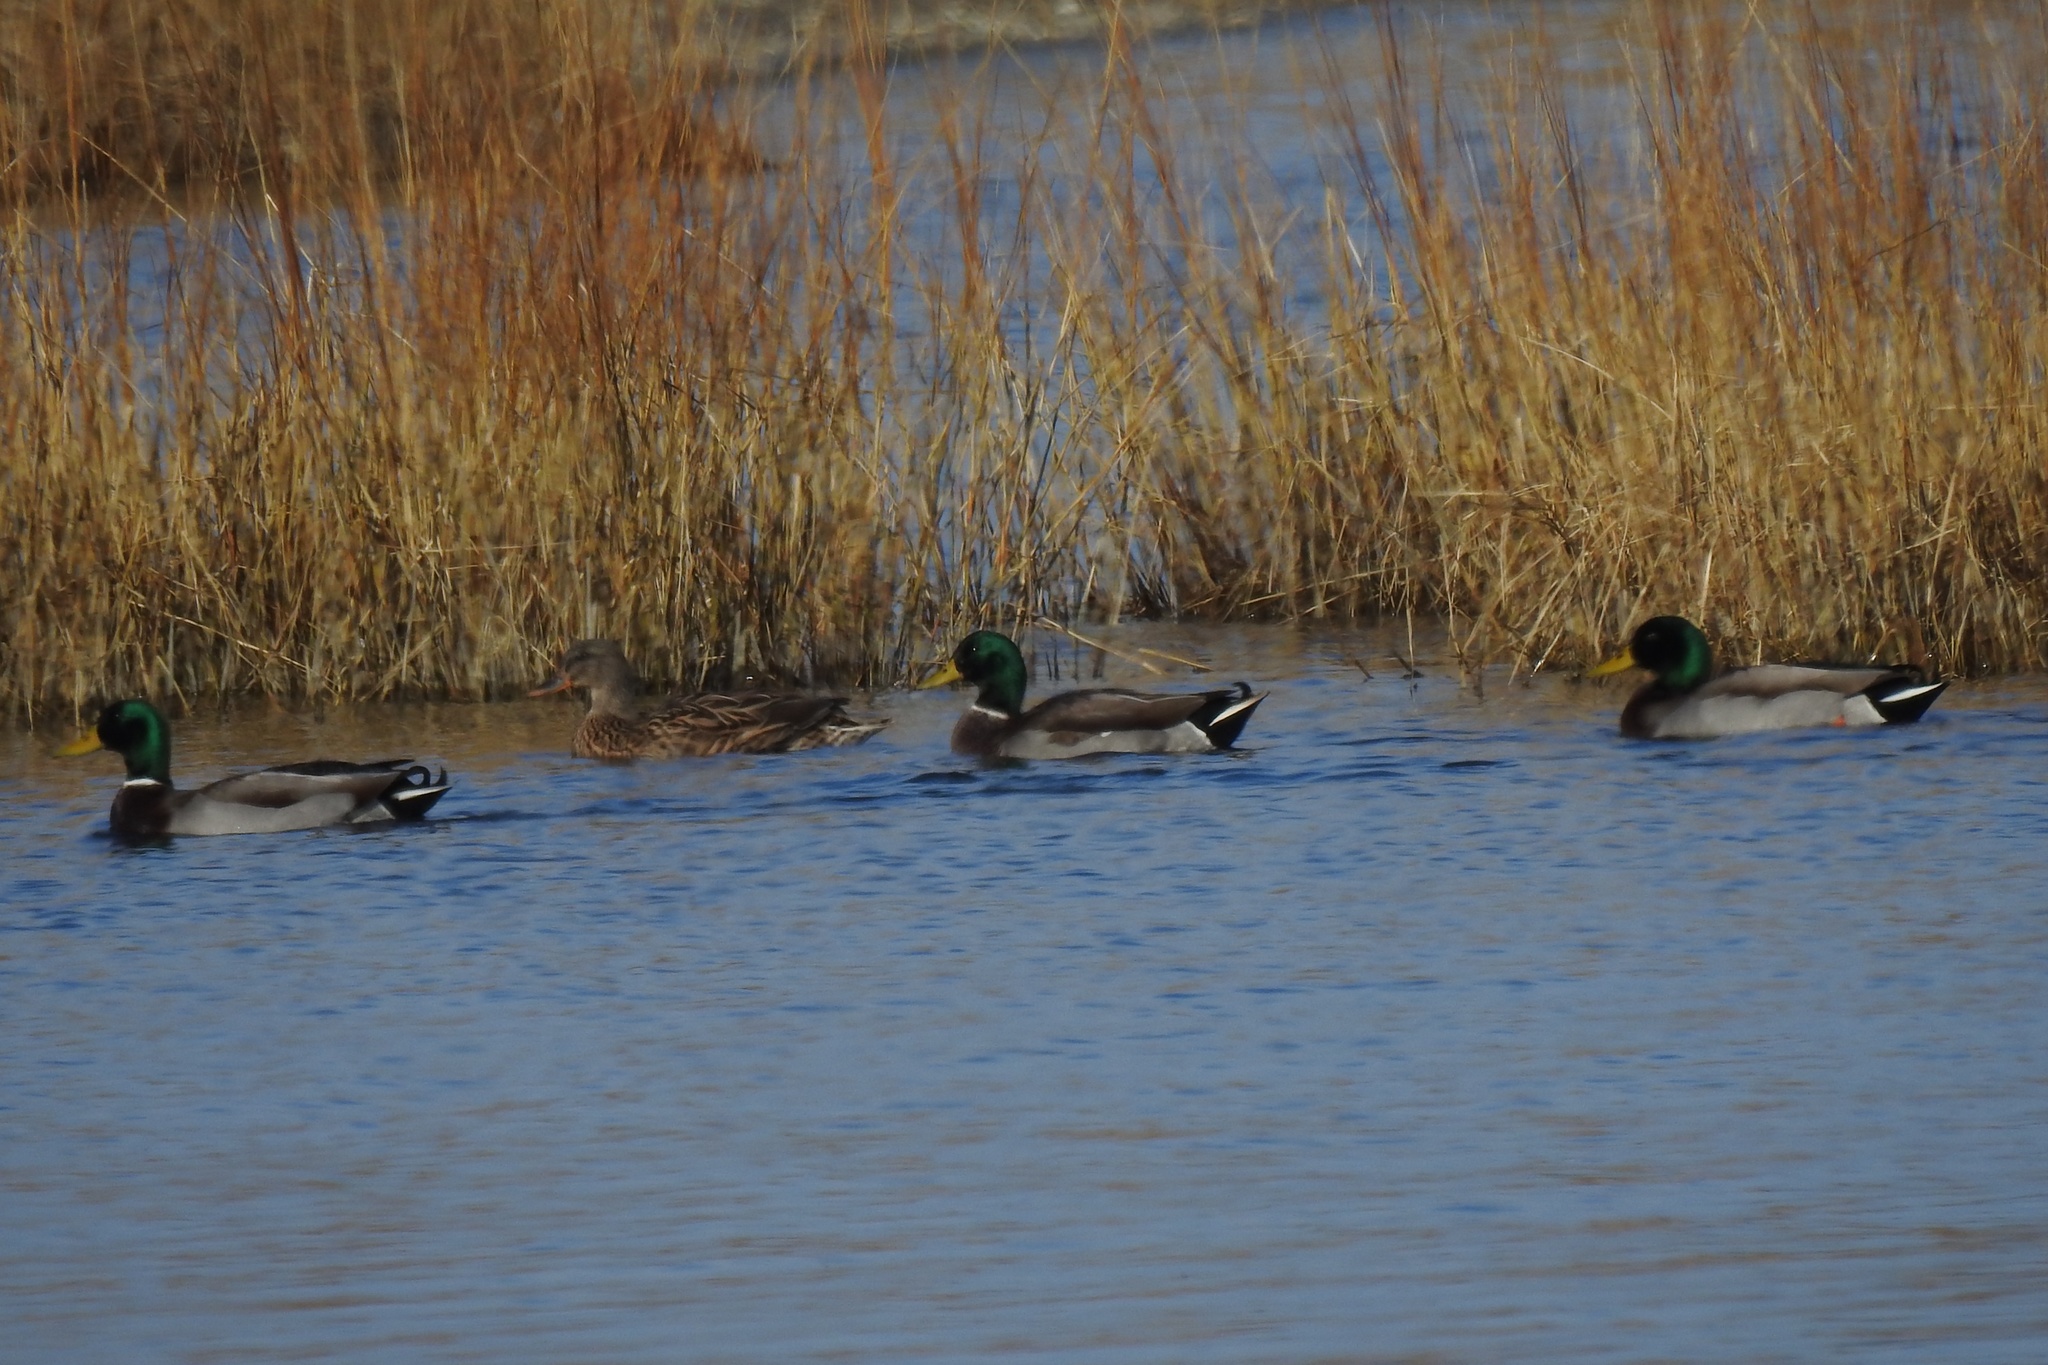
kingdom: Animalia
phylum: Chordata
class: Aves
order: Anseriformes
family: Anatidae
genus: Anas
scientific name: Anas platyrhynchos
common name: Mallard
